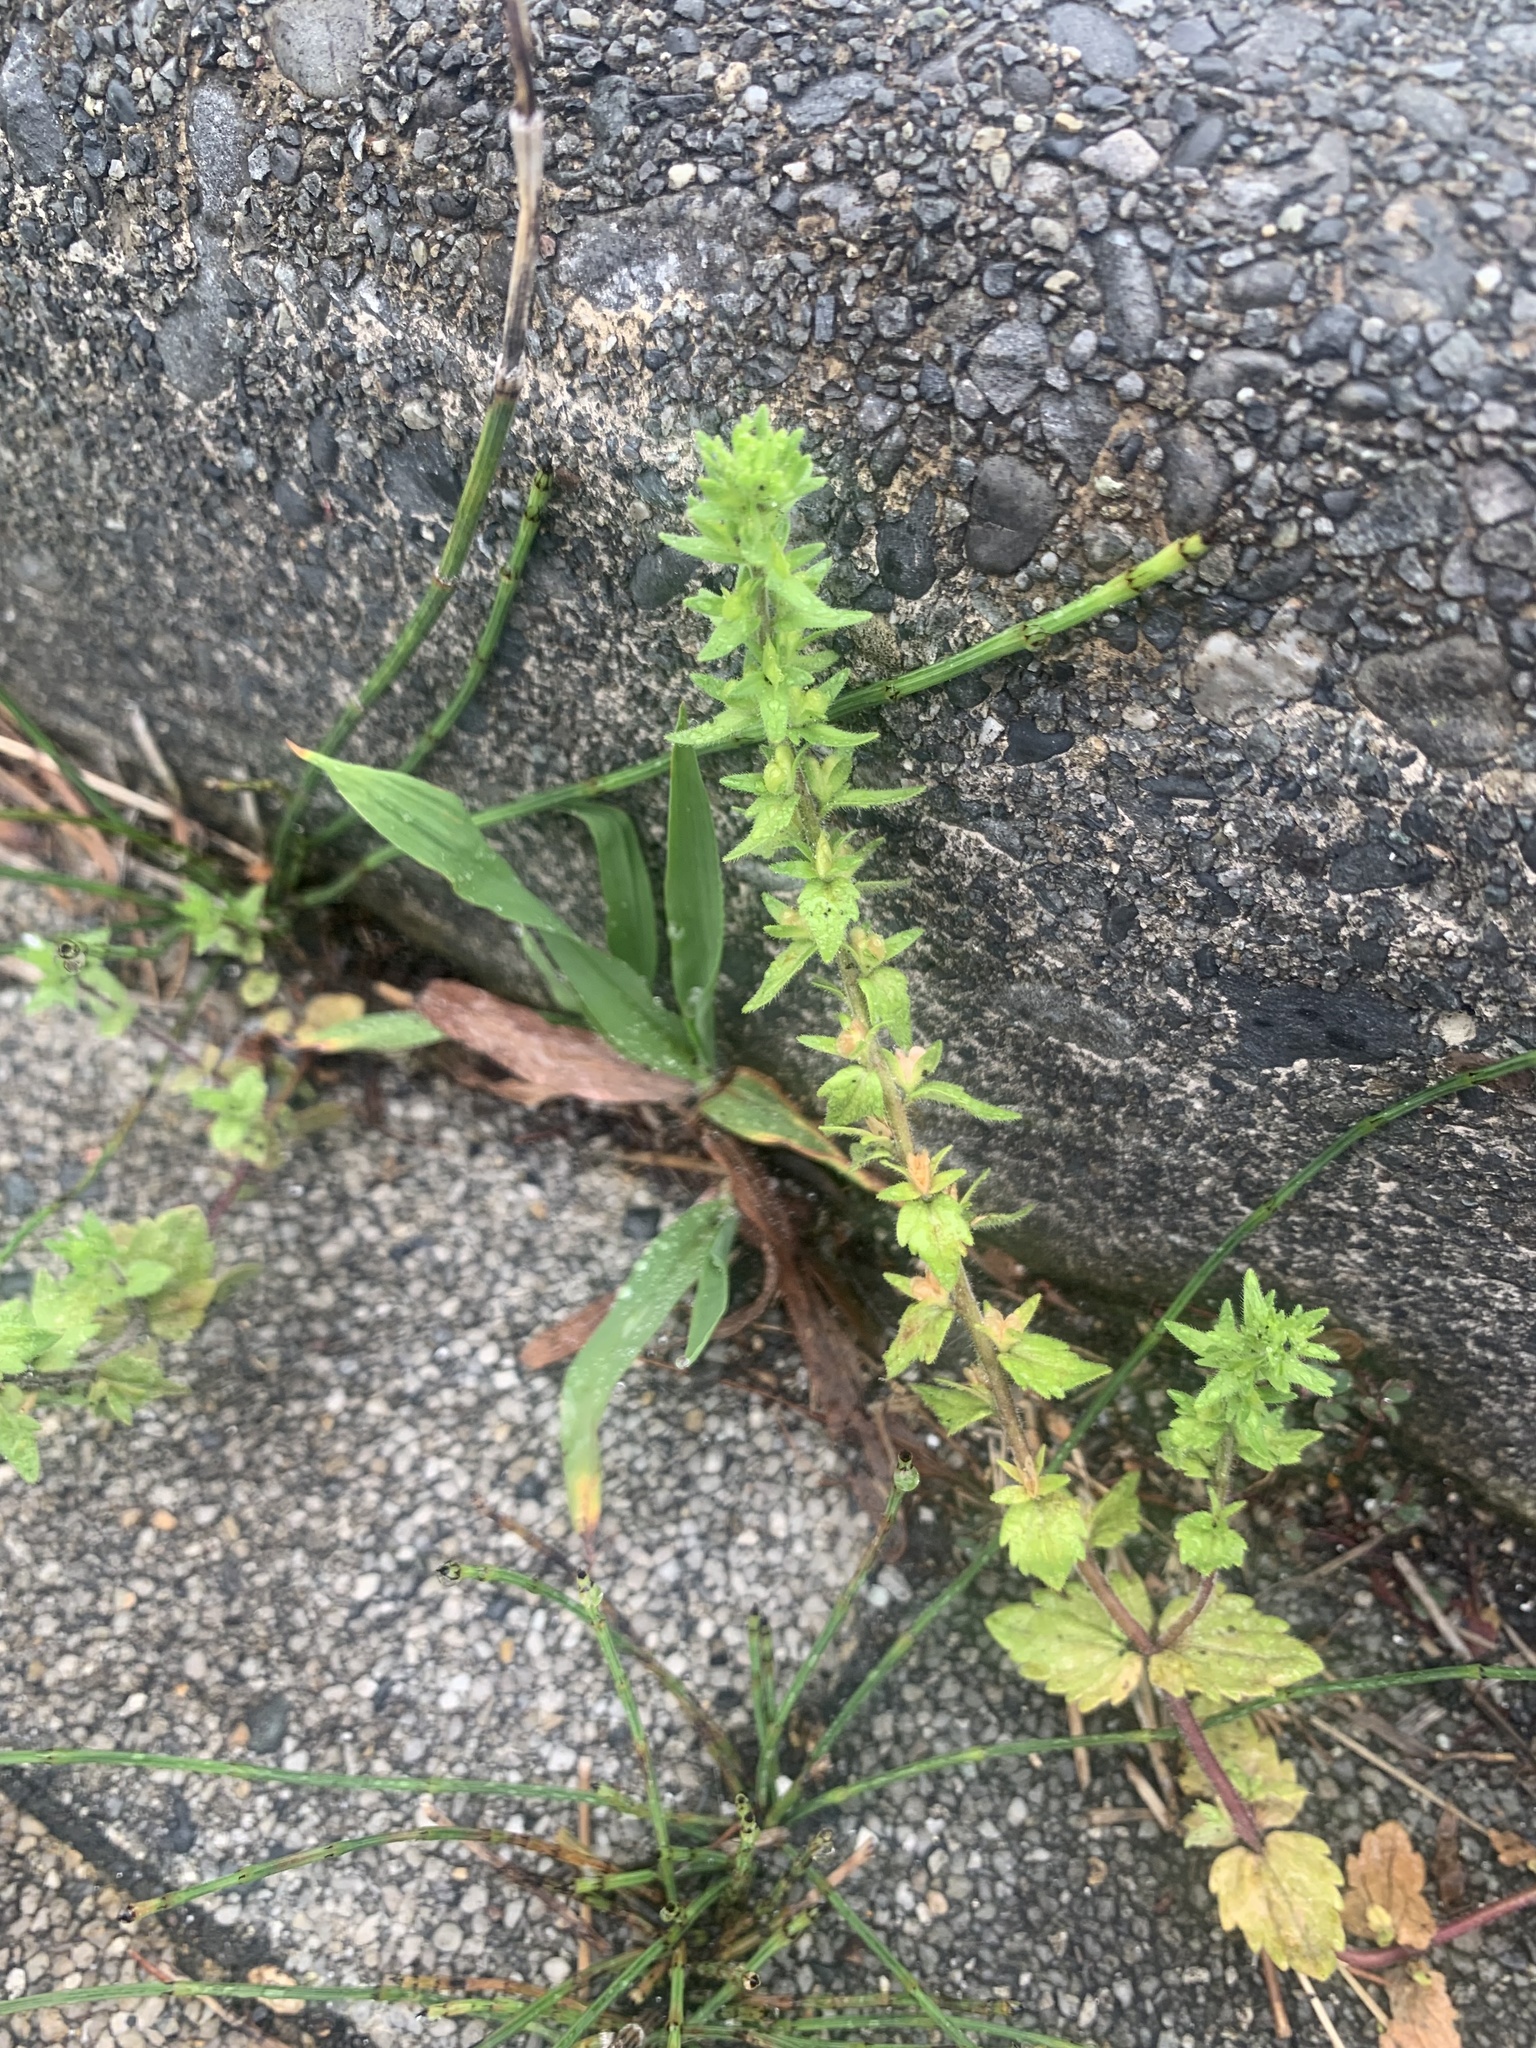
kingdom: Plantae
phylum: Tracheophyta
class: Magnoliopsida
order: Lamiales
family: Plantaginaceae
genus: Veronica
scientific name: Veronica arvensis
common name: Corn speedwell
